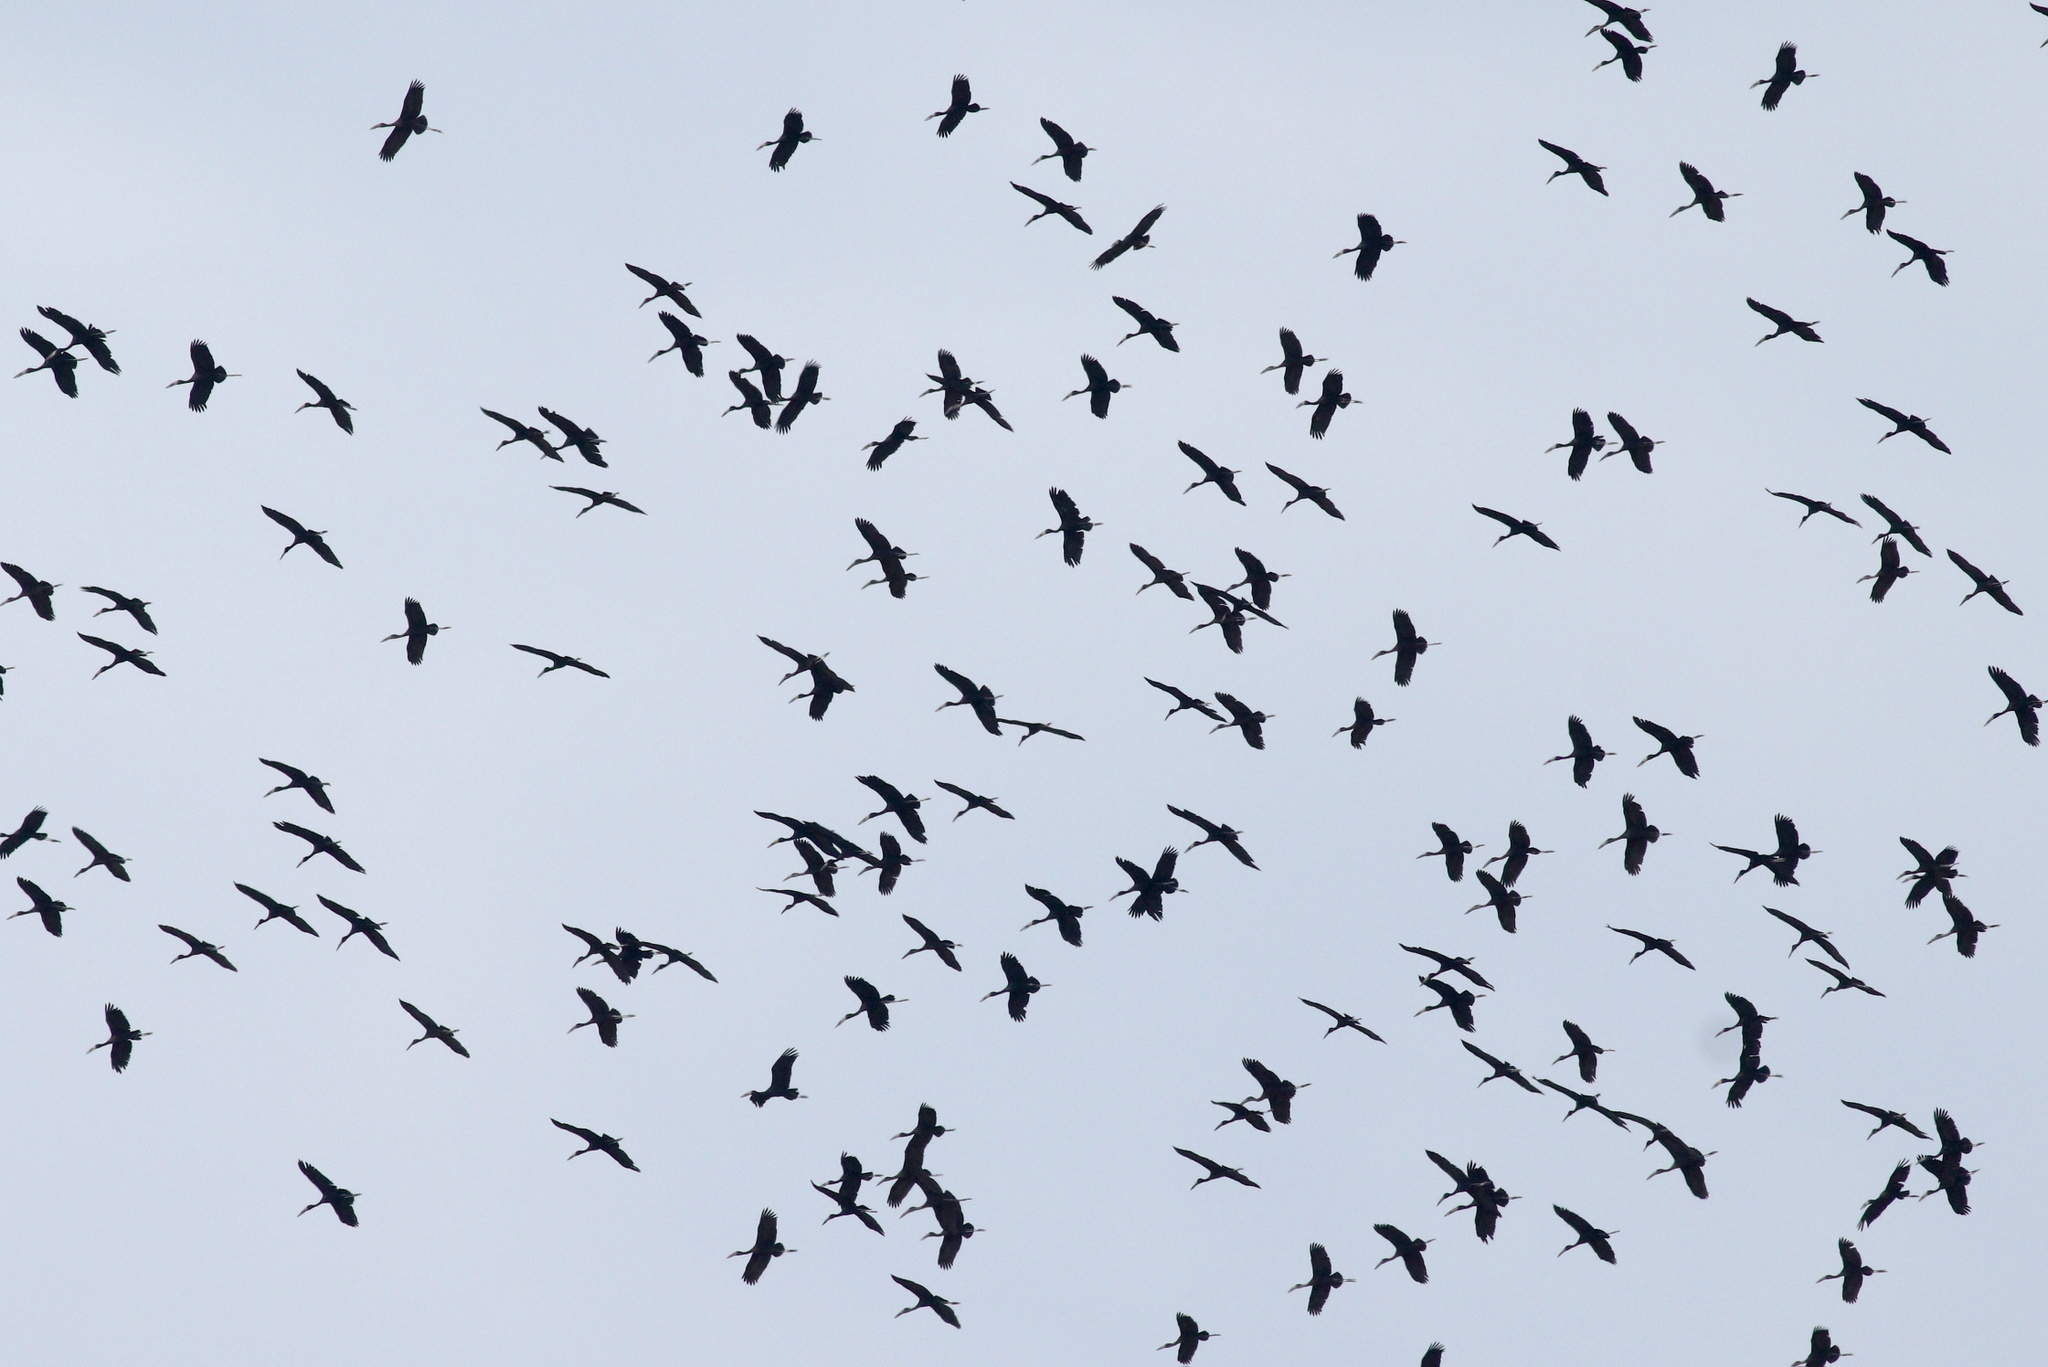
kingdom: Animalia
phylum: Chordata
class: Aves
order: Ciconiiformes
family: Ciconiidae
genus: Anastomus
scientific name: Anastomus lamelligerus
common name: African openbill
